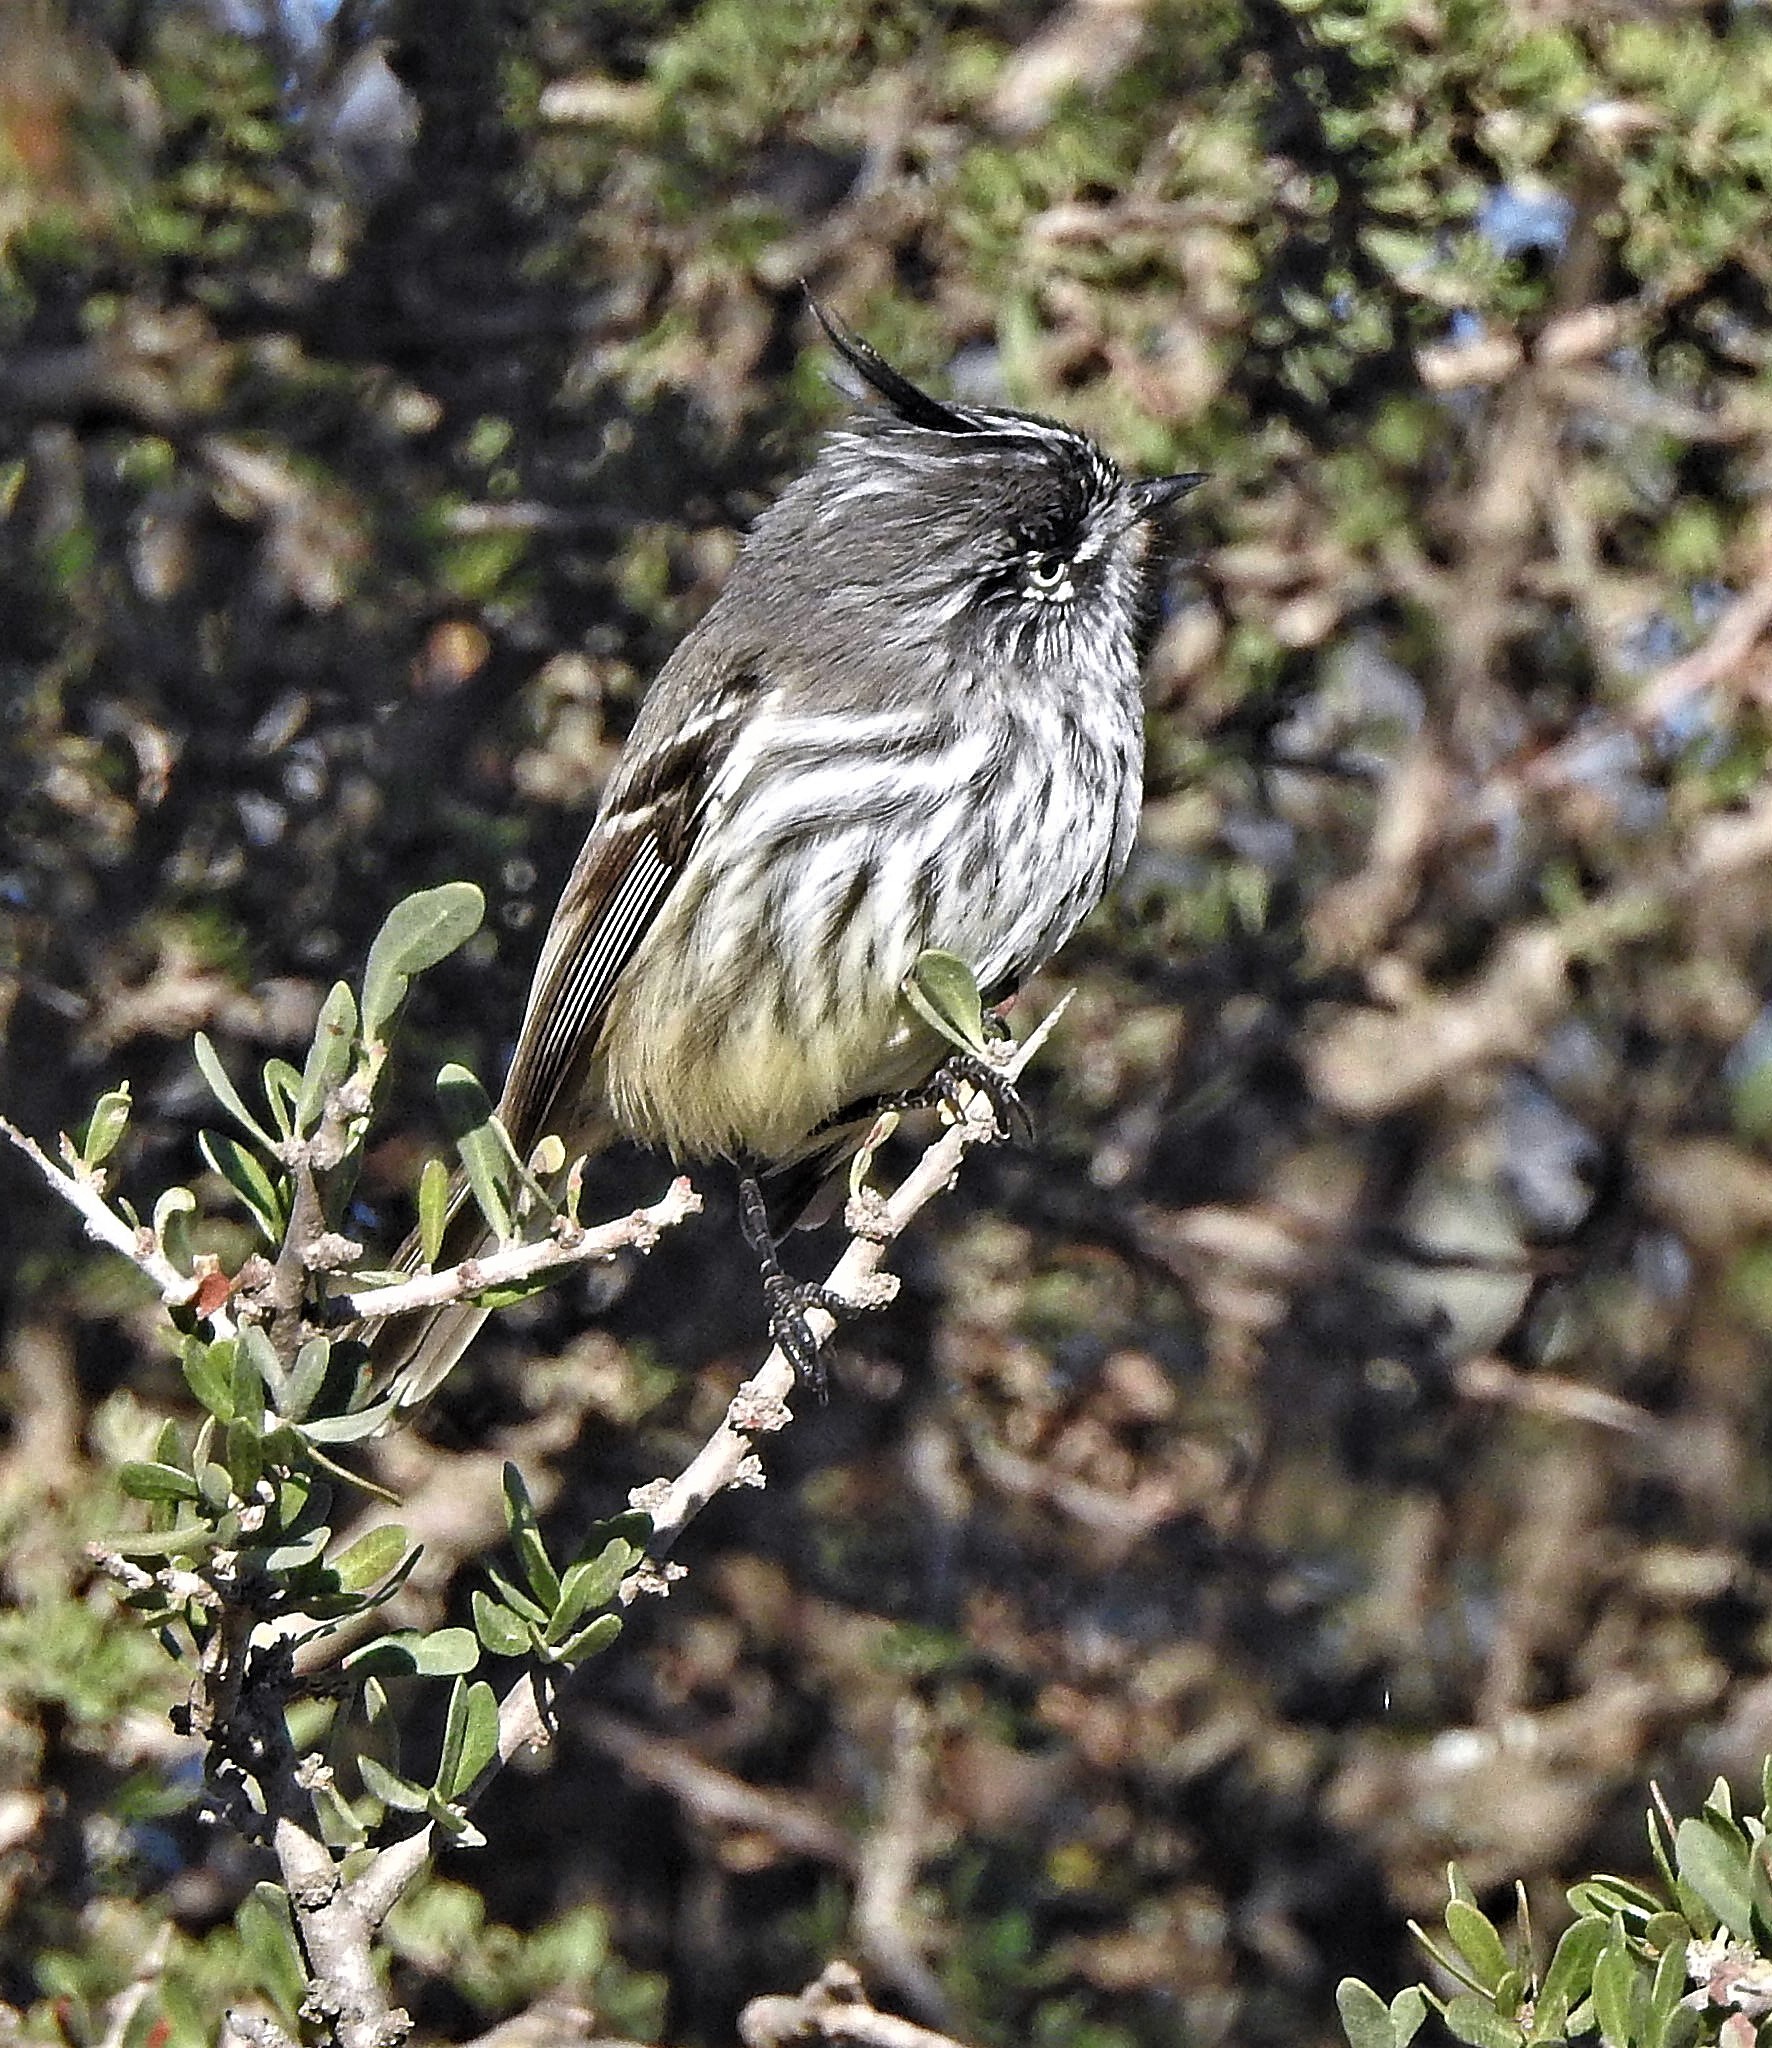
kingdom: Animalia
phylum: Chordata
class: Aves
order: Passeriformes
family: Tyrannidae
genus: Anairetes
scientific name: Anairetes parulus
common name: Tufted tit-tyrant
